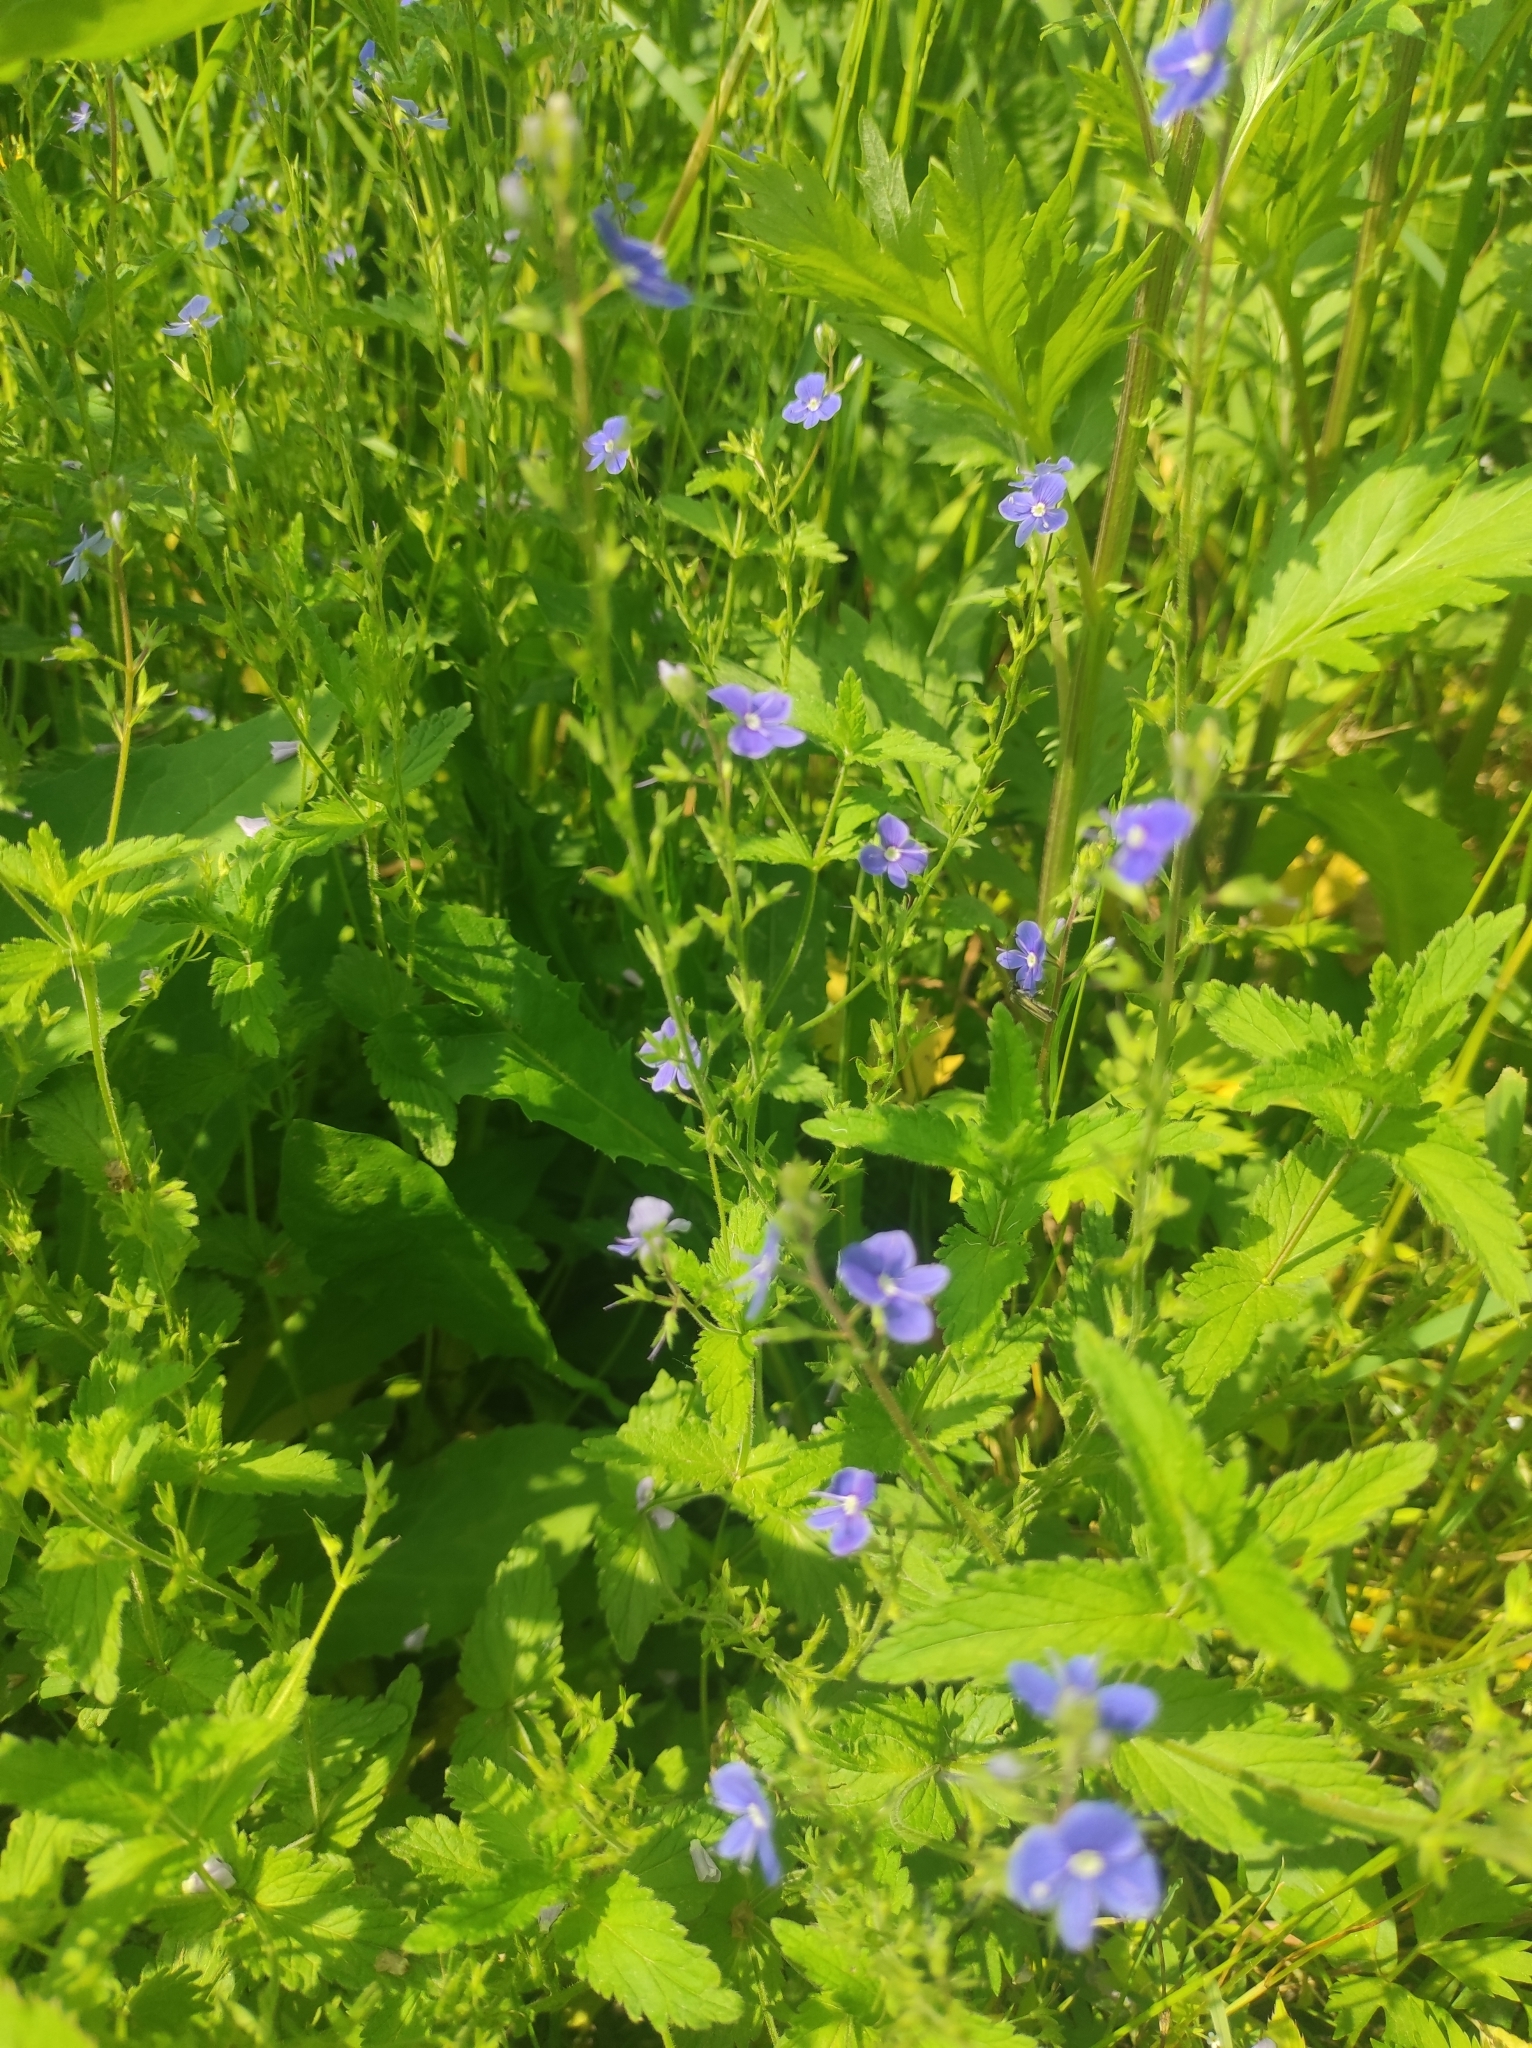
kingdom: Plantae
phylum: Tracheophyta
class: Magnoliopsida
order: Lamiales
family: Plantaginaceae
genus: Veronica
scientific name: Veronica chamaedrys
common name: Germander speedwell
